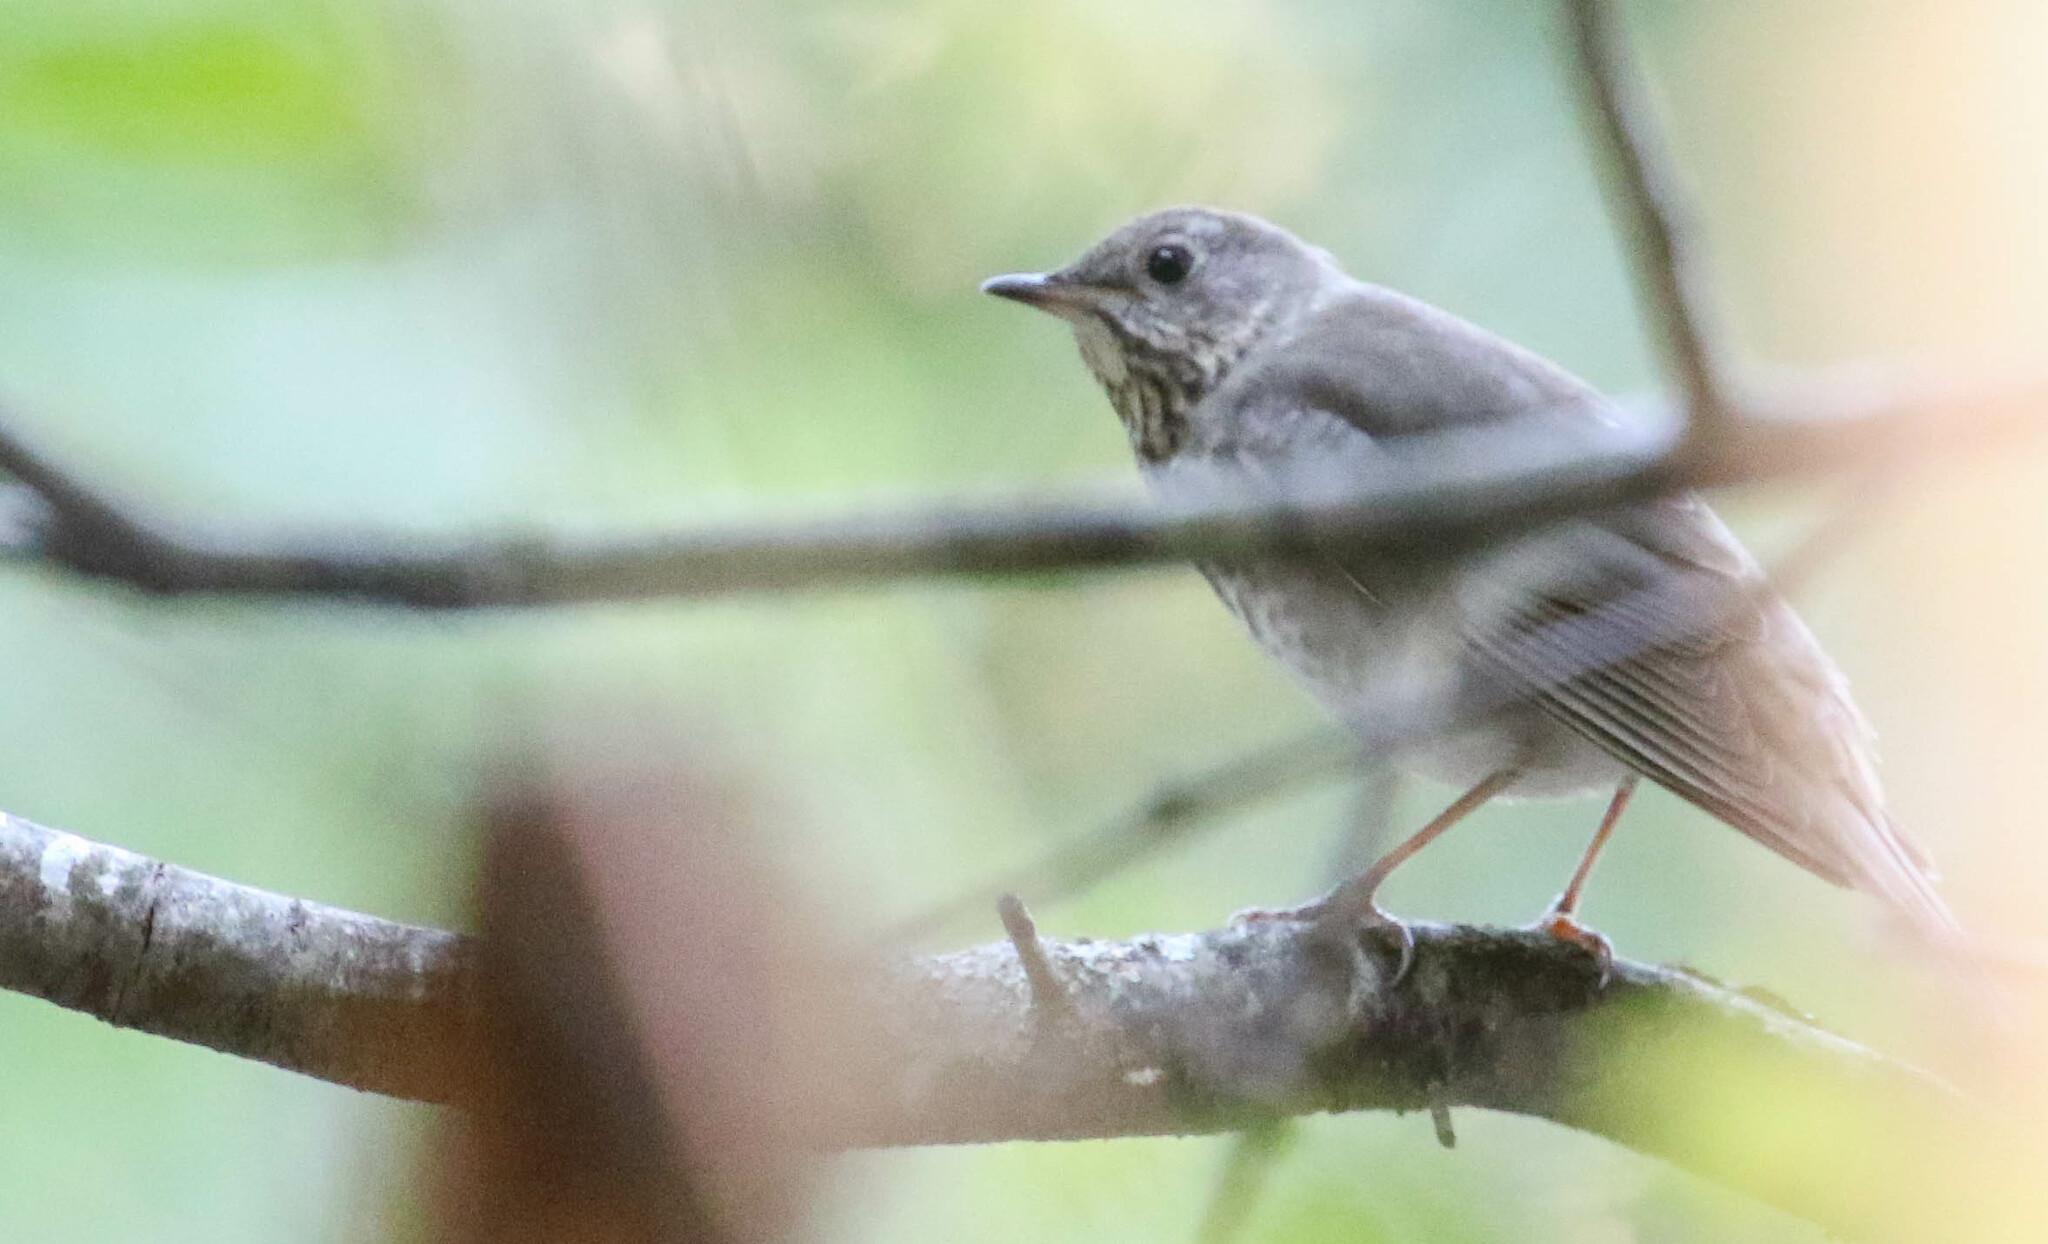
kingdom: Animalia
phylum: Chordata
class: Aves
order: Passeriformes
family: Turdidae
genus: Catharus
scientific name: Catharus minimus
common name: Grey-cheeked thrush
